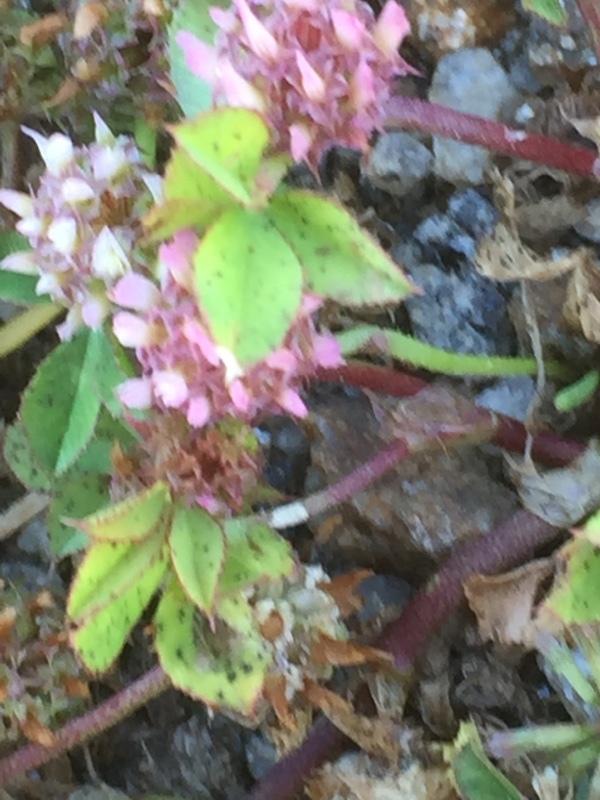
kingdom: Plantae
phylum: Tracheophyta
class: Magnoliopsida
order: Fabales
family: Fabaceae
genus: Trifolium
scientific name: Trifolium glomeratum
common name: Clustered clover
